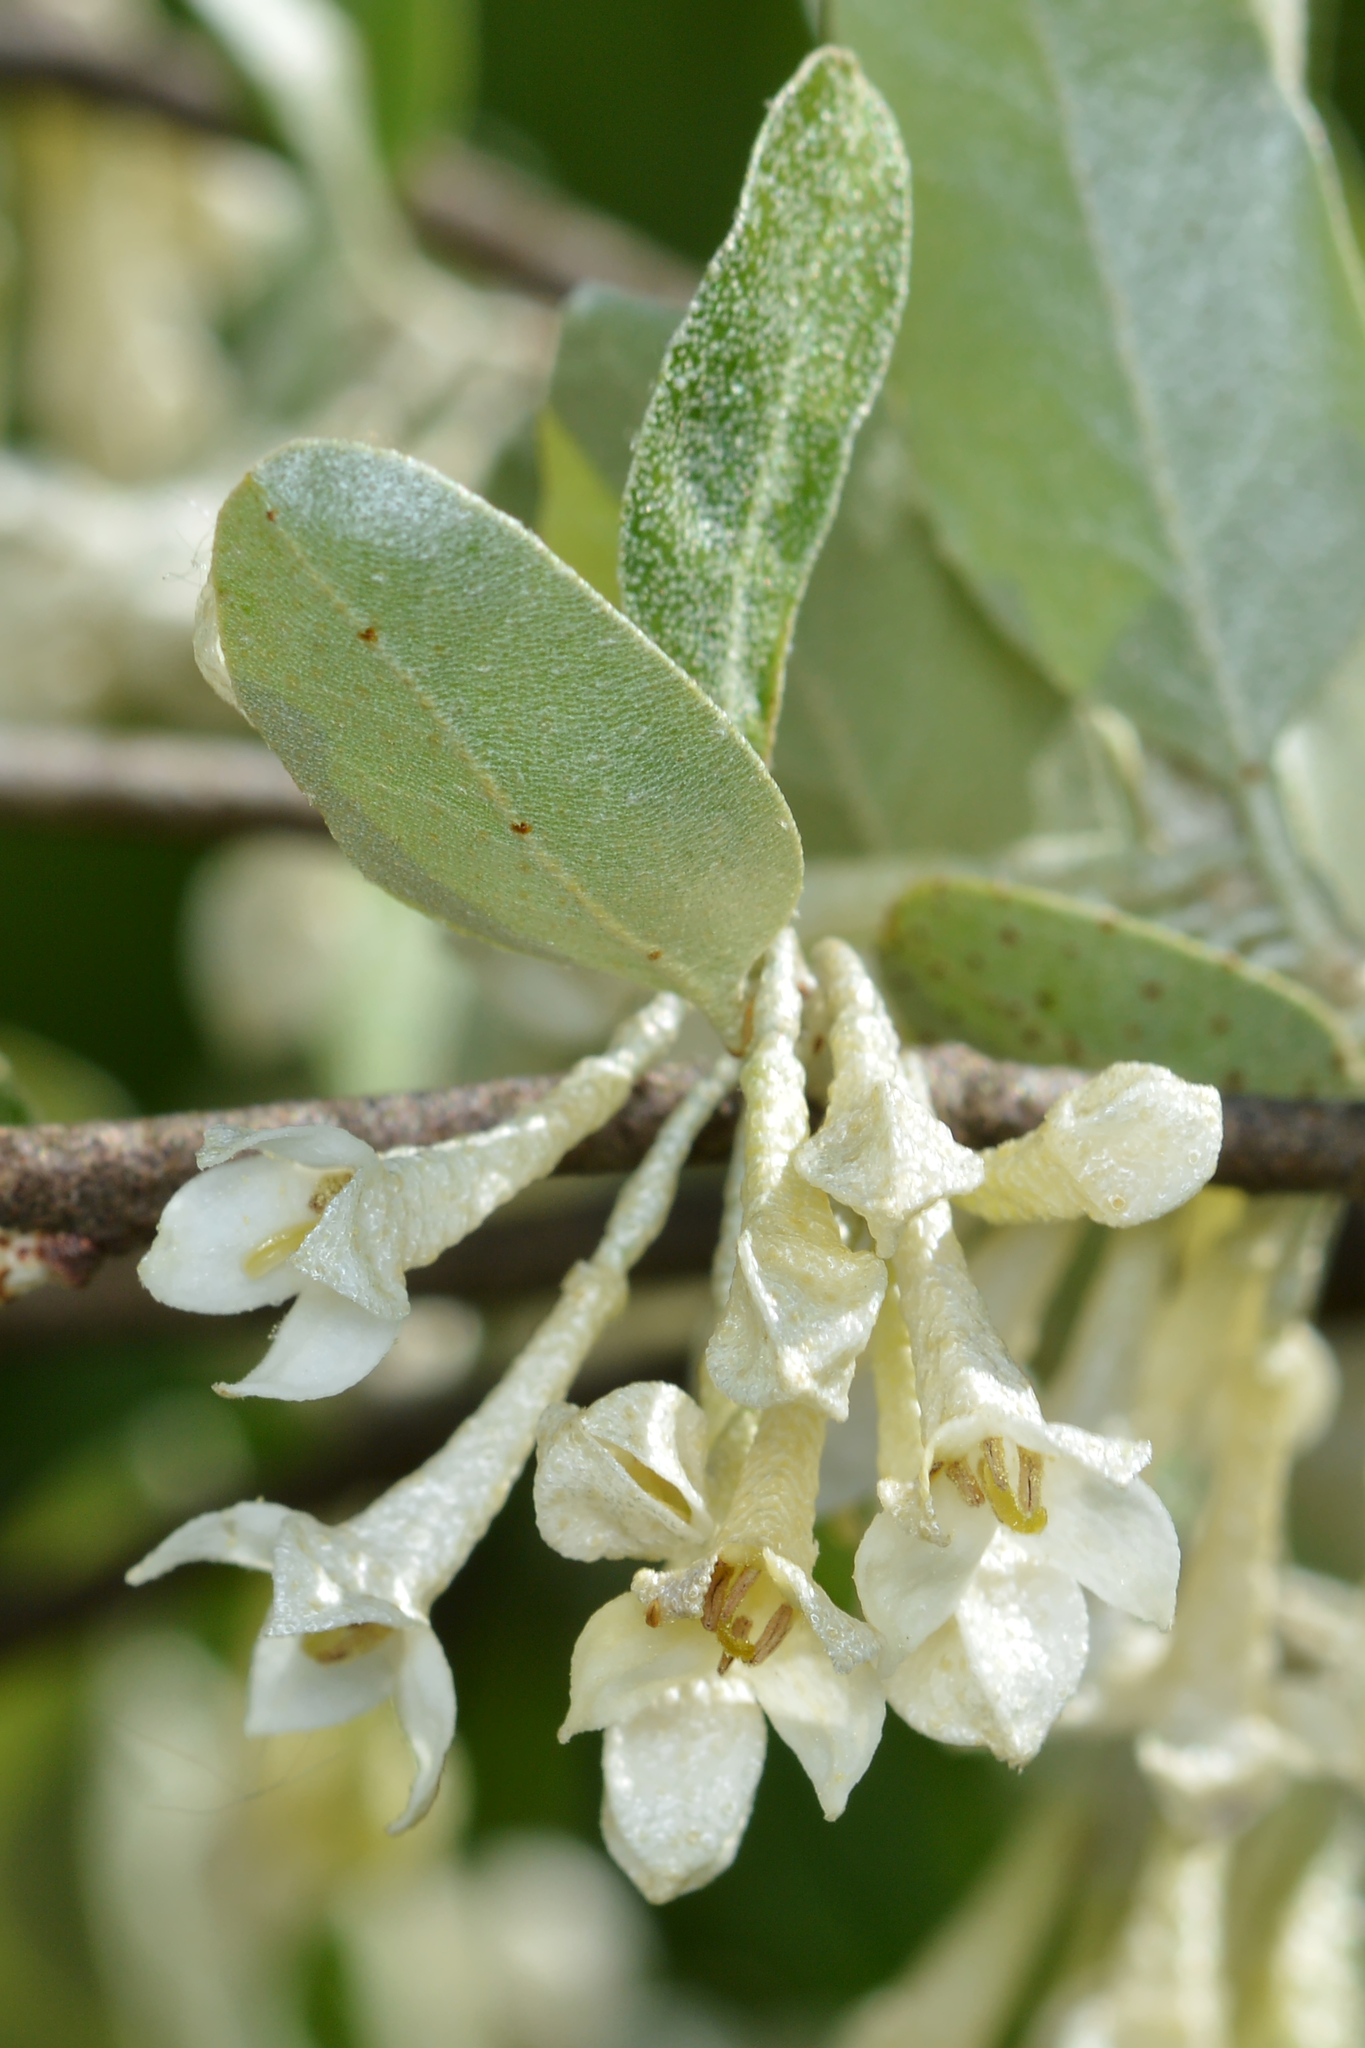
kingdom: Plantae
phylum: Tracheophyta
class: Magnoliopsida
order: Rosales
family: Elaeagnaceae
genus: Elaeagnus
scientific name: Elaeagnus umbellata
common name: Autumn olive
